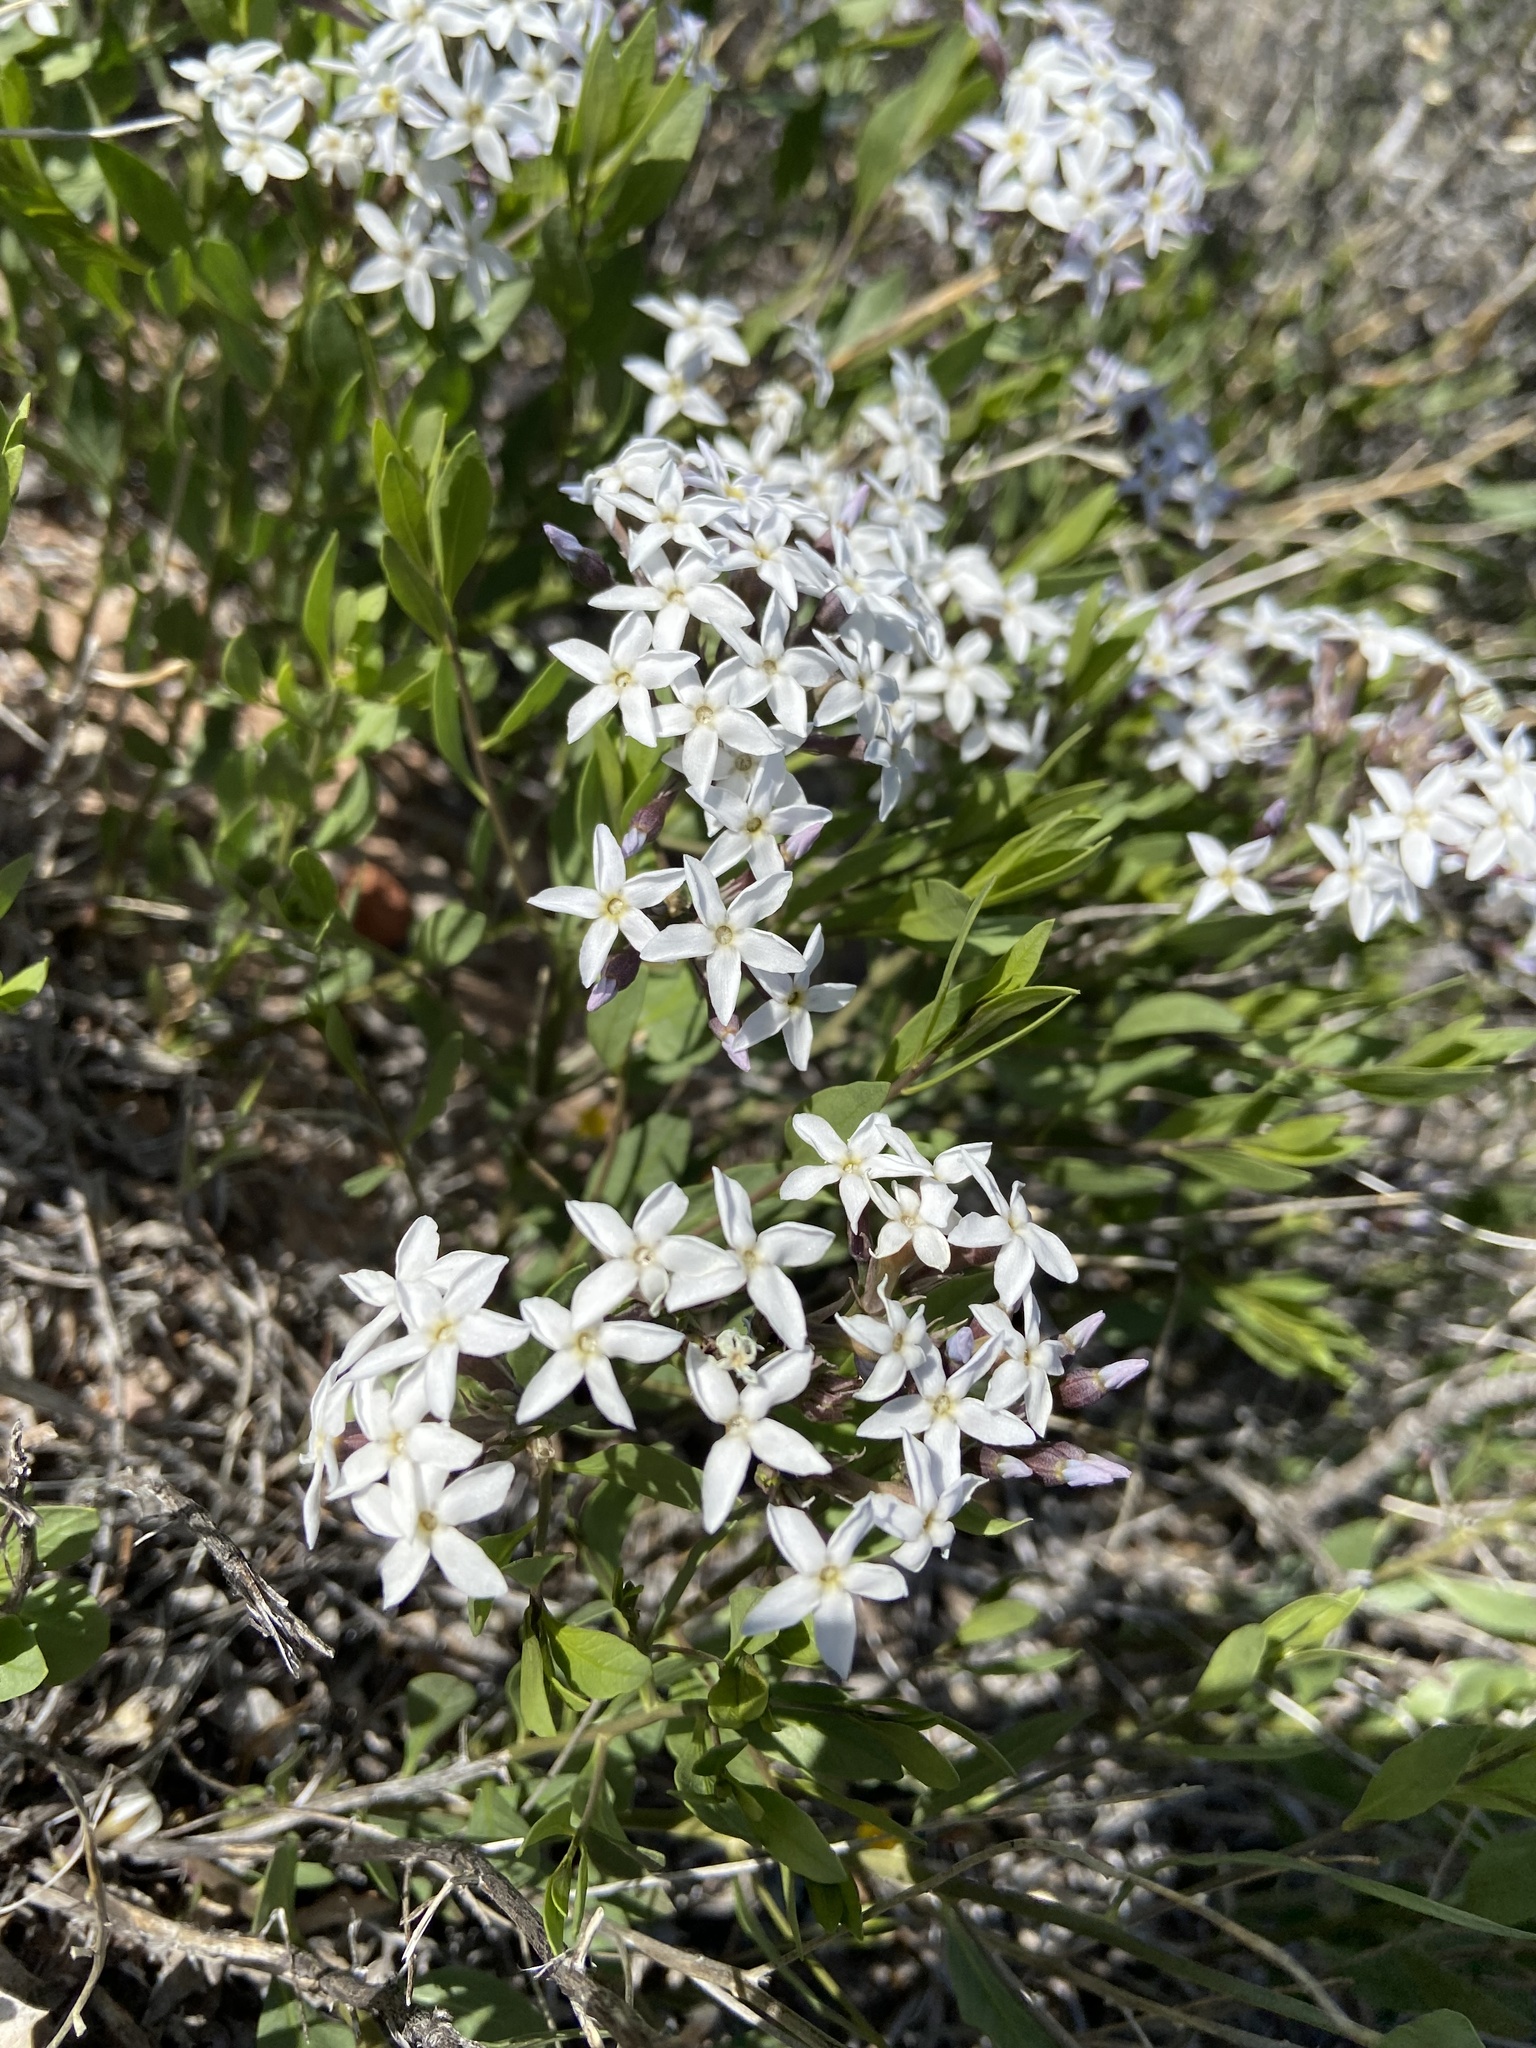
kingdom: Plantae
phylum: Tracheophyta
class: Magnoliopsida
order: Gentianales
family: Apocynaceae
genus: Amsonia
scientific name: Amsonia tomentosa
